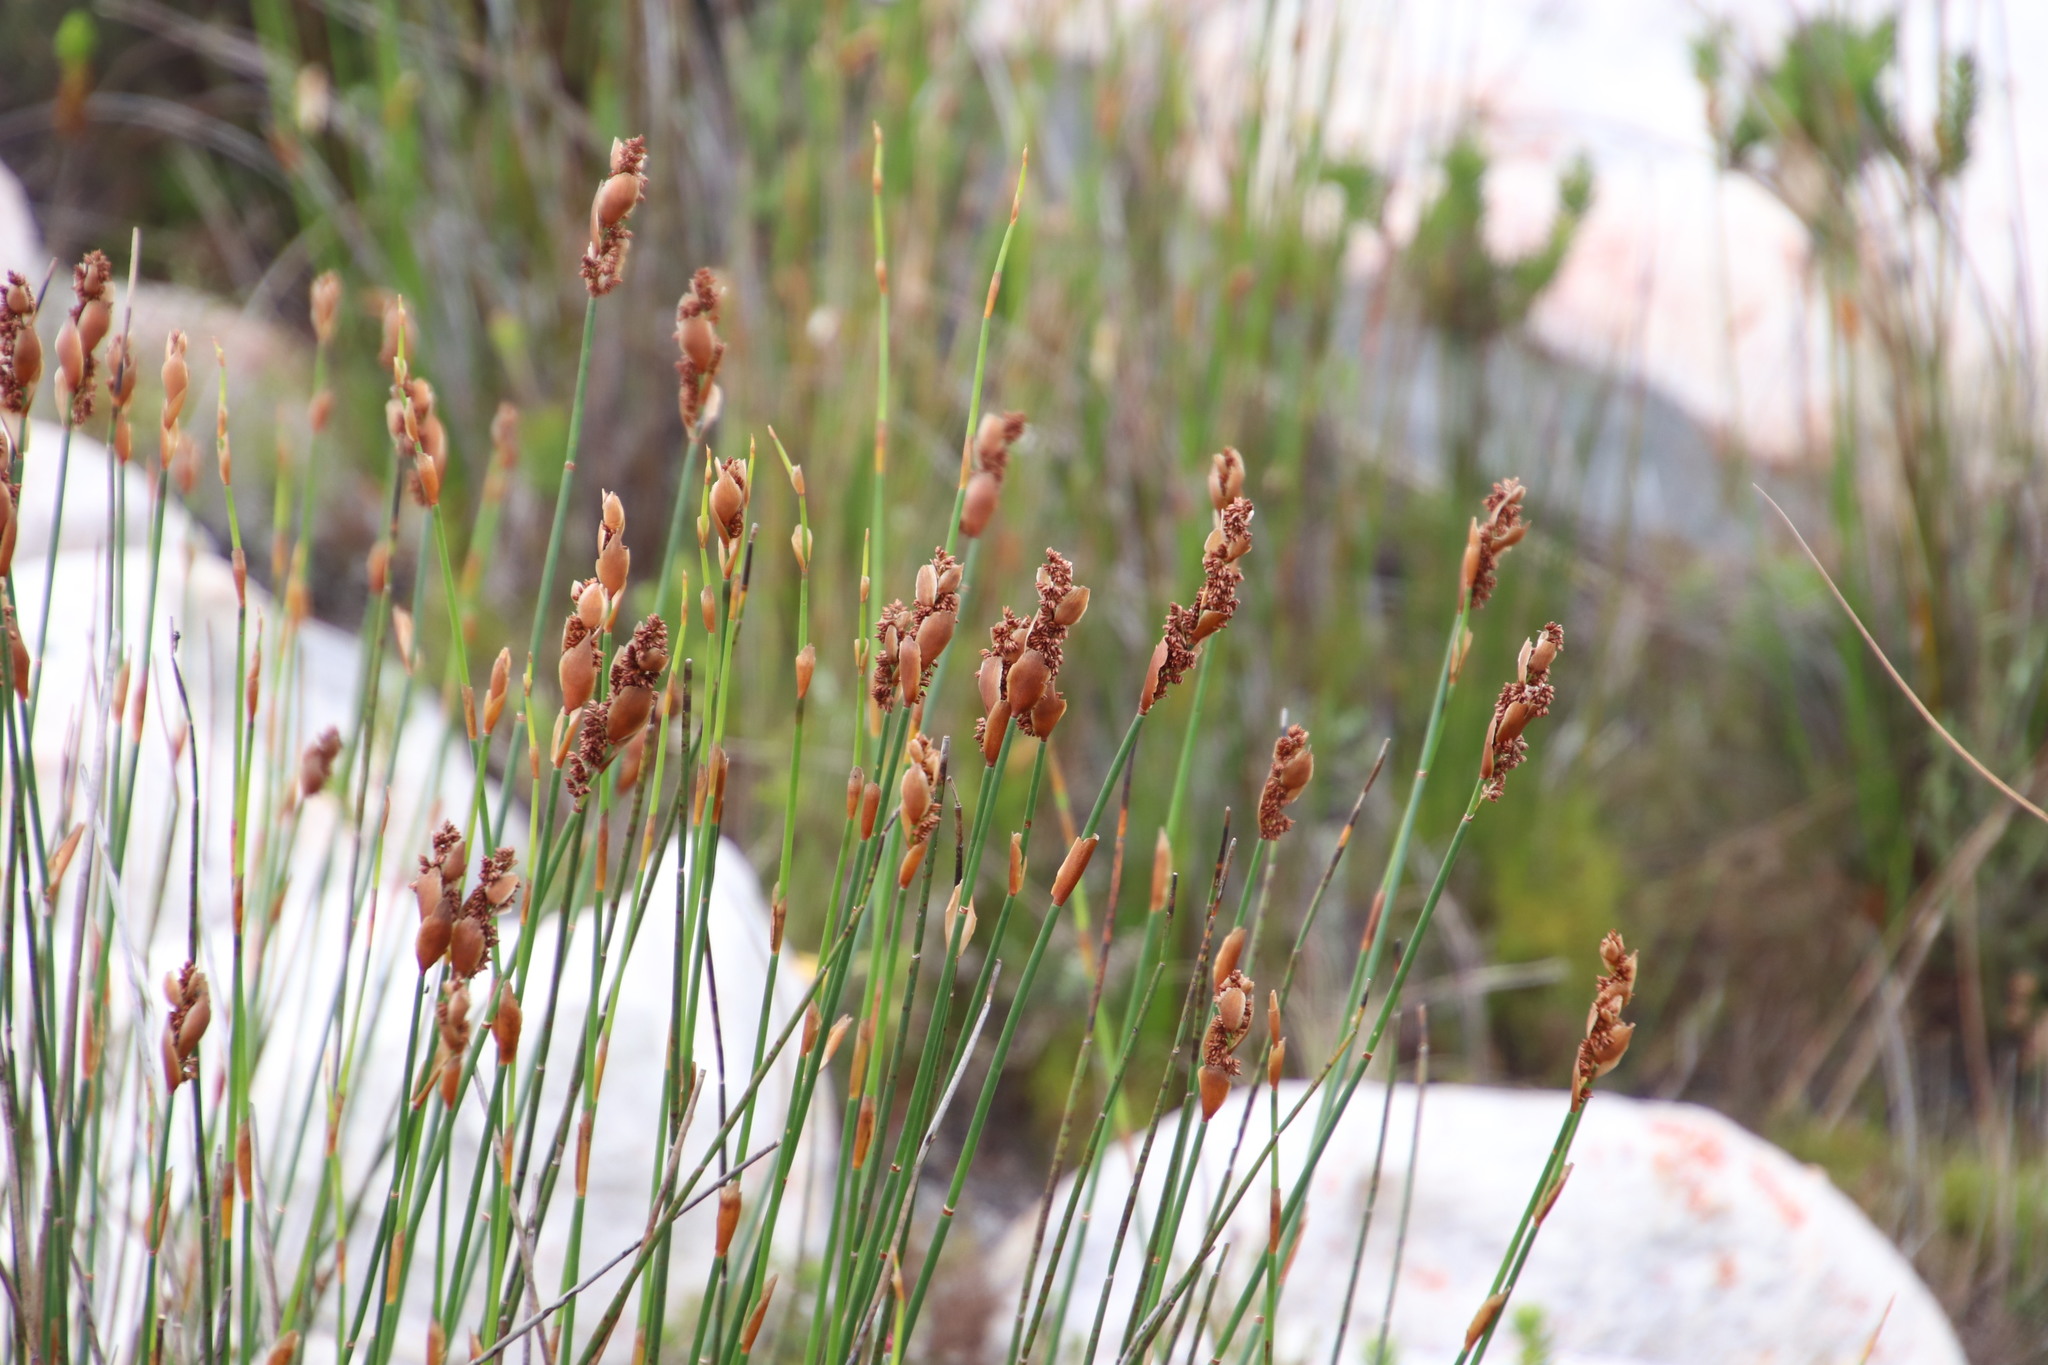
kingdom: Plantae
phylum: Tracheophyta
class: Liliopsida
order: Poales
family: Restionaceae
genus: Elegia
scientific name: Elegia ebracteata
